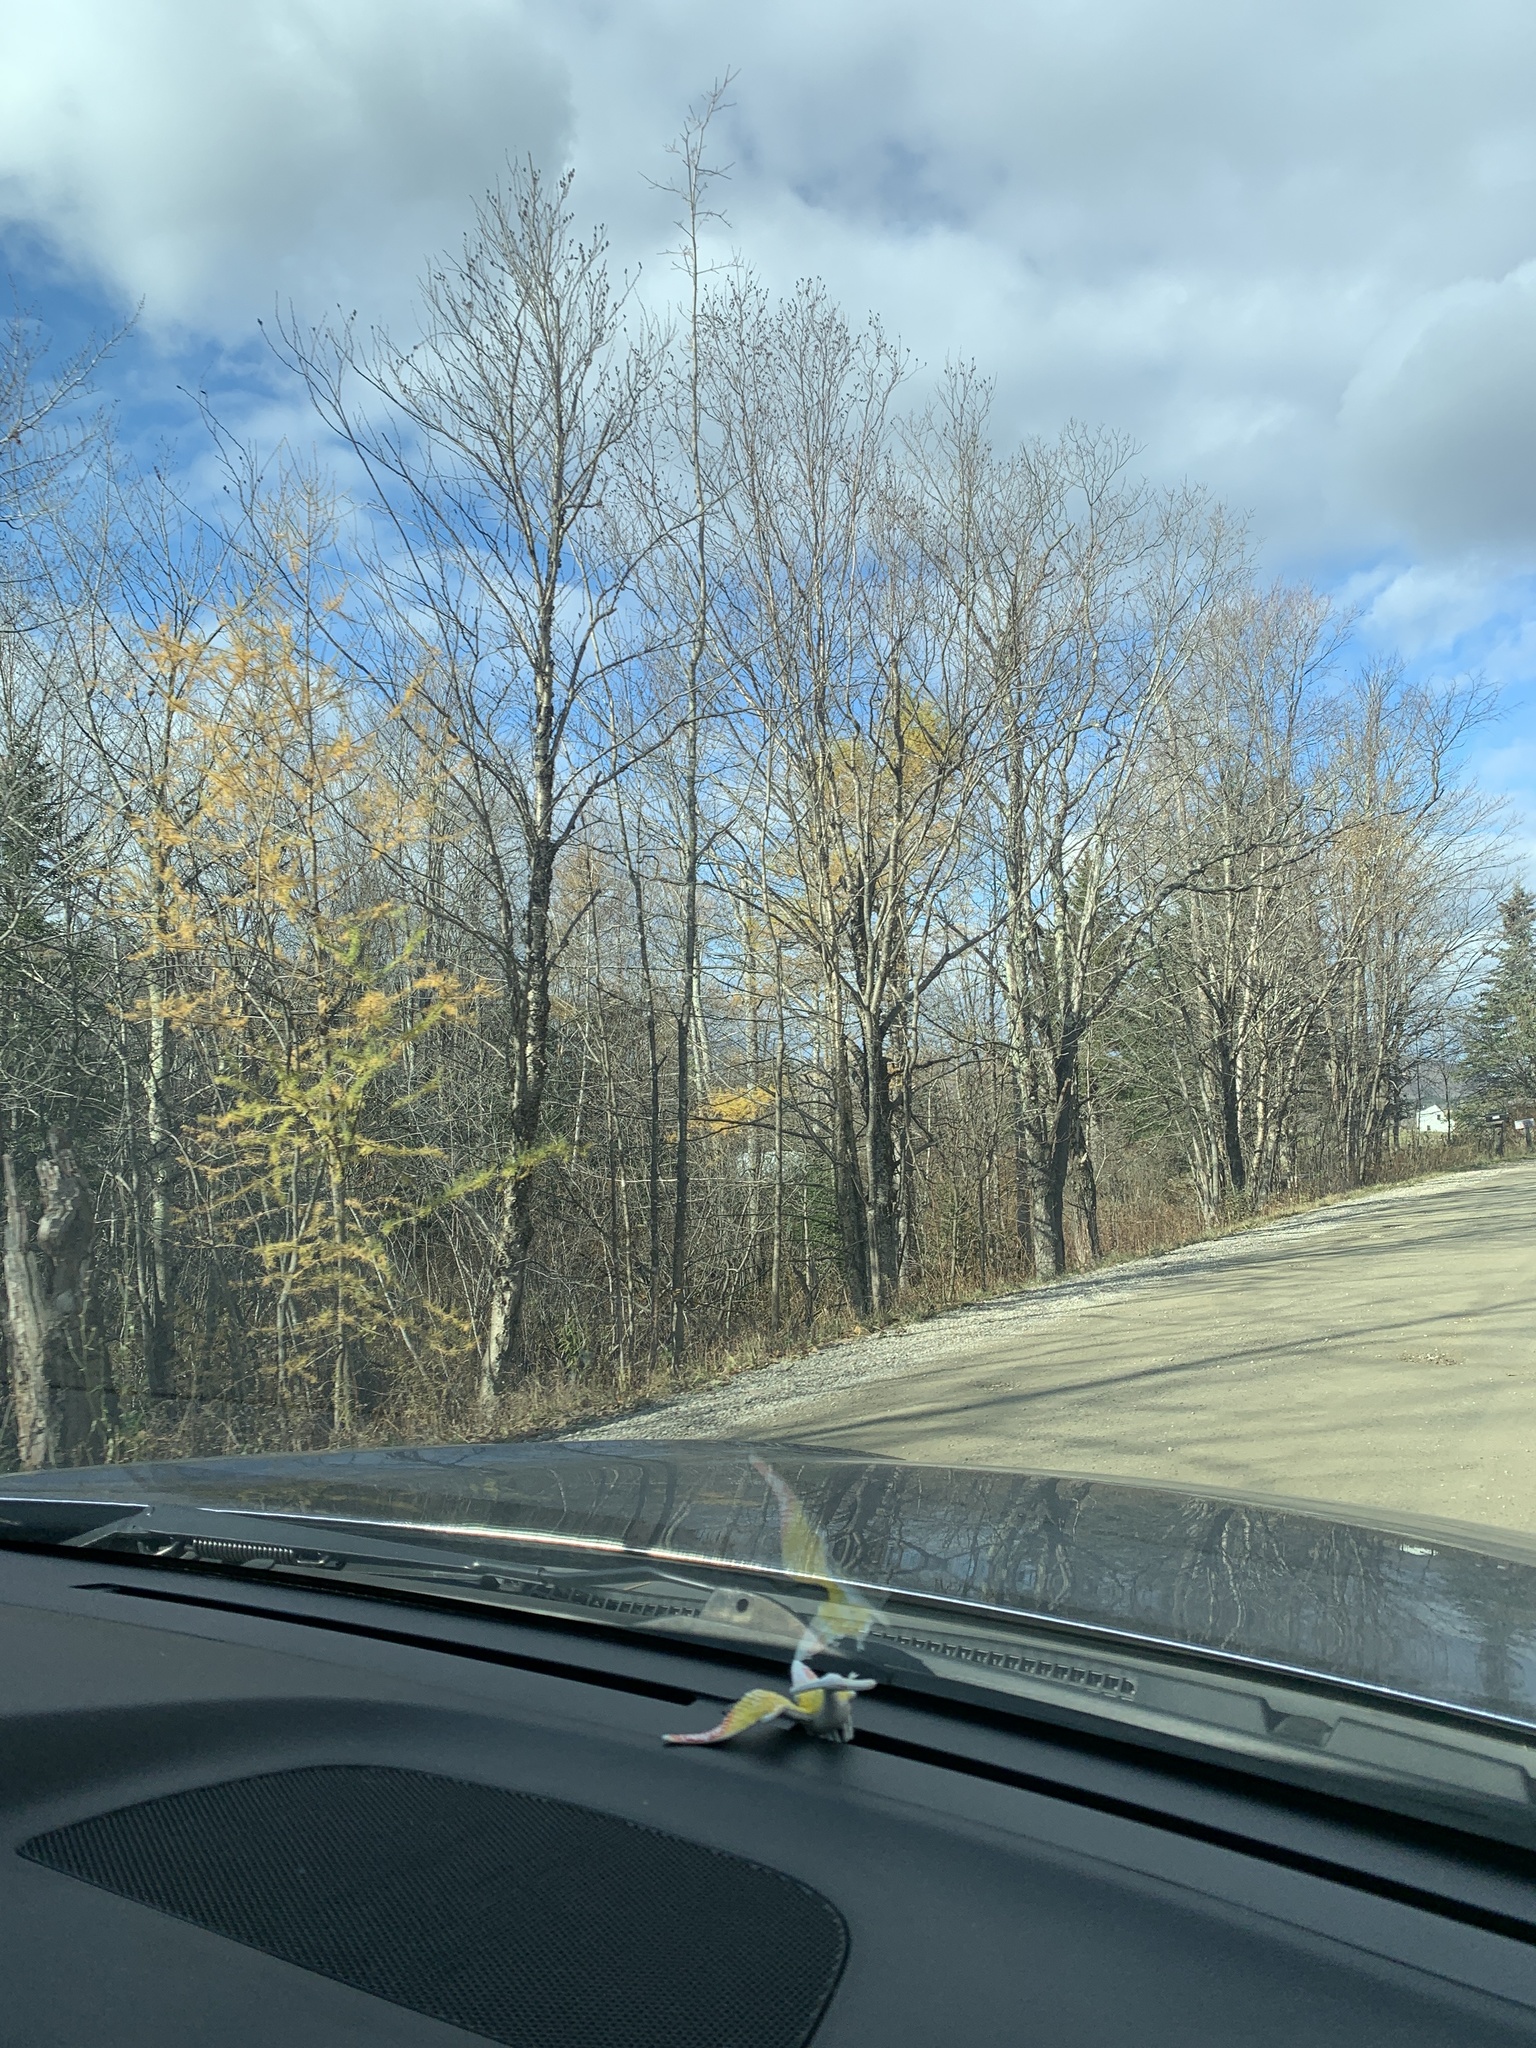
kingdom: Plantae
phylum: Tracheophyta
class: Pinopsida
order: Pinales
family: Pinaceae
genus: Larix
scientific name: Larix laricina
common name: American larch
